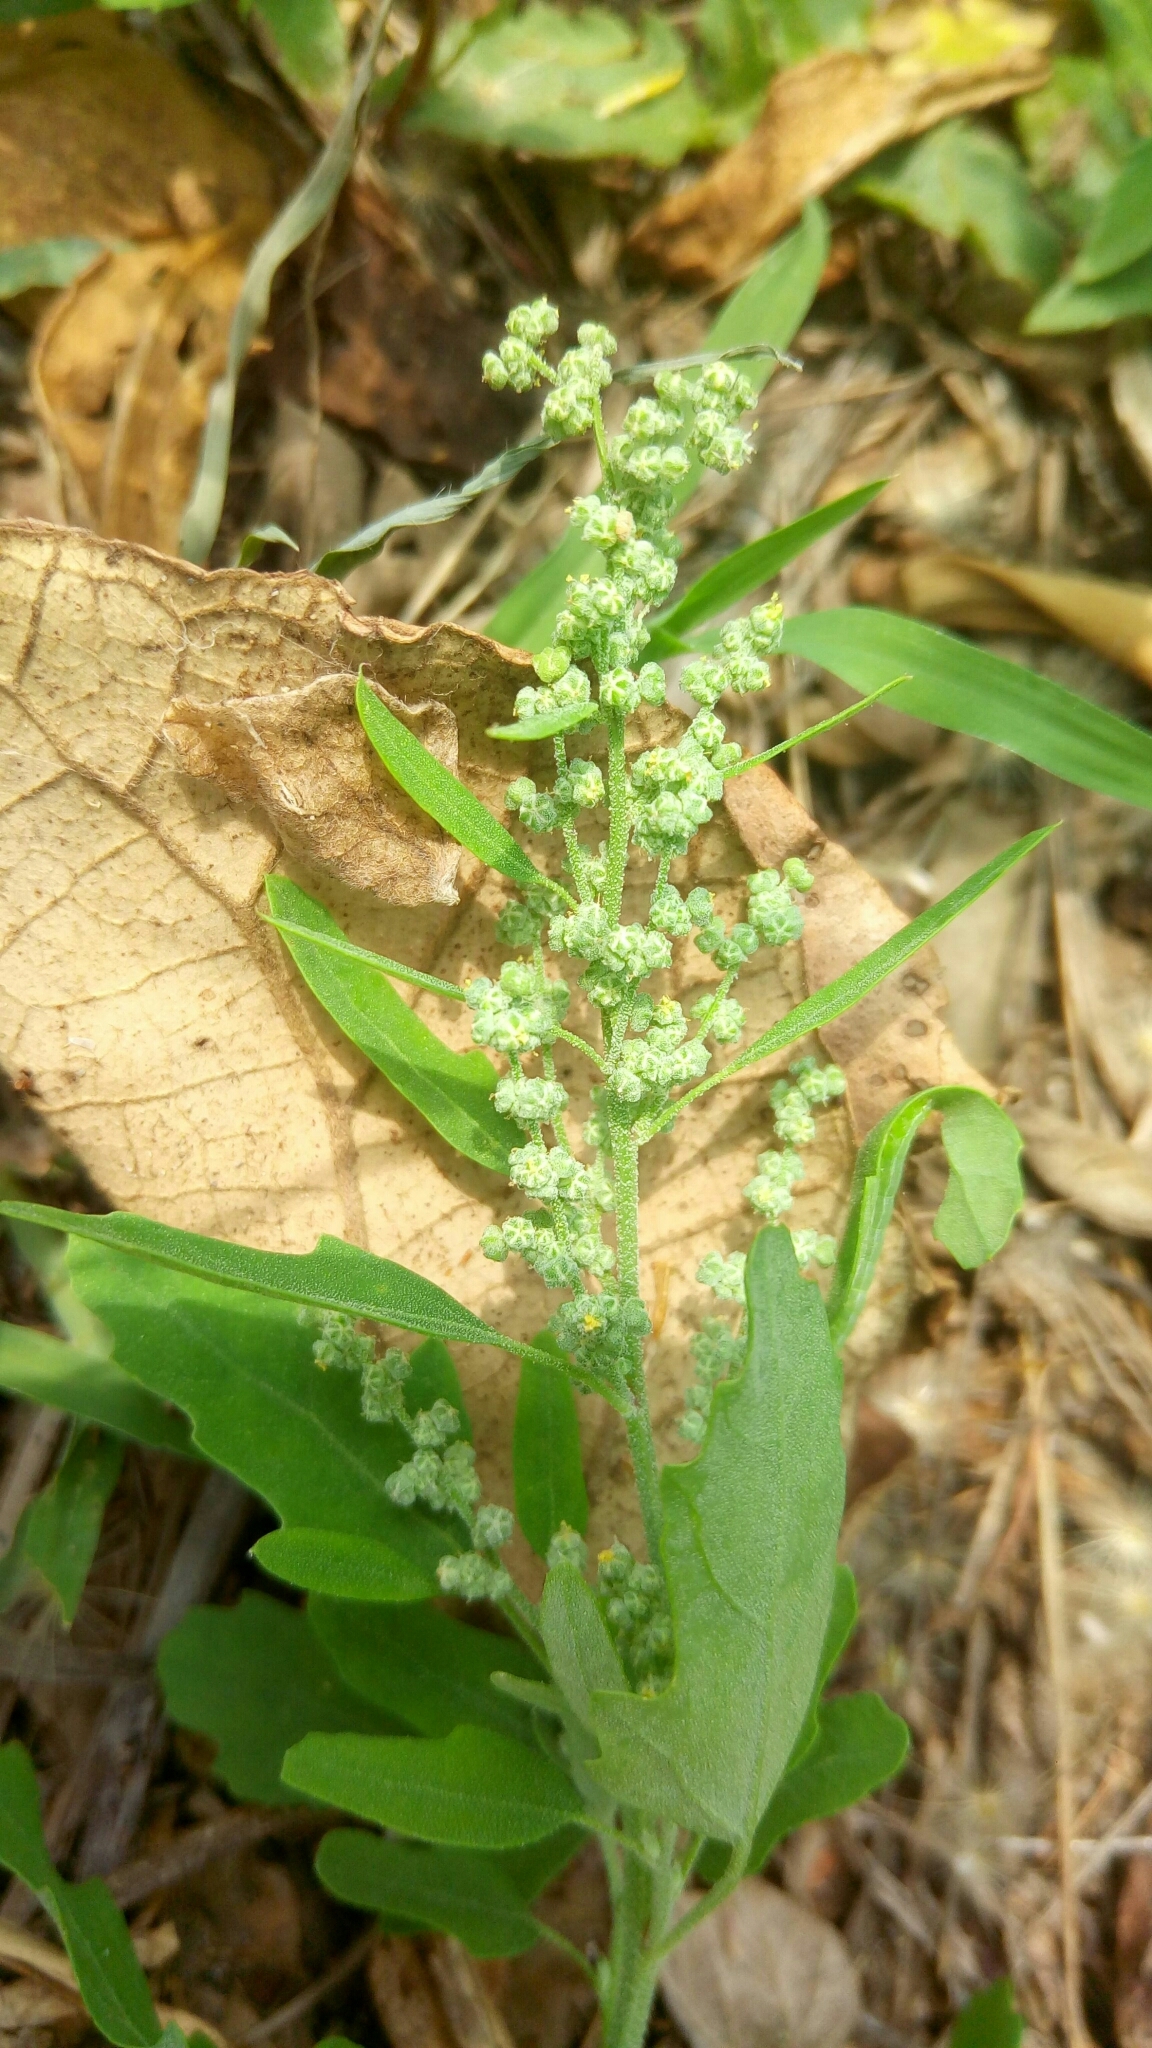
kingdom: Plantae
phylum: Tracheophyta
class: Magnoliopsida
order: Caryophyllales
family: Amaranthaceae
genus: Chenopodium
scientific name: Chenopodium ficifolium
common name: Fig-leaved goosefoot
